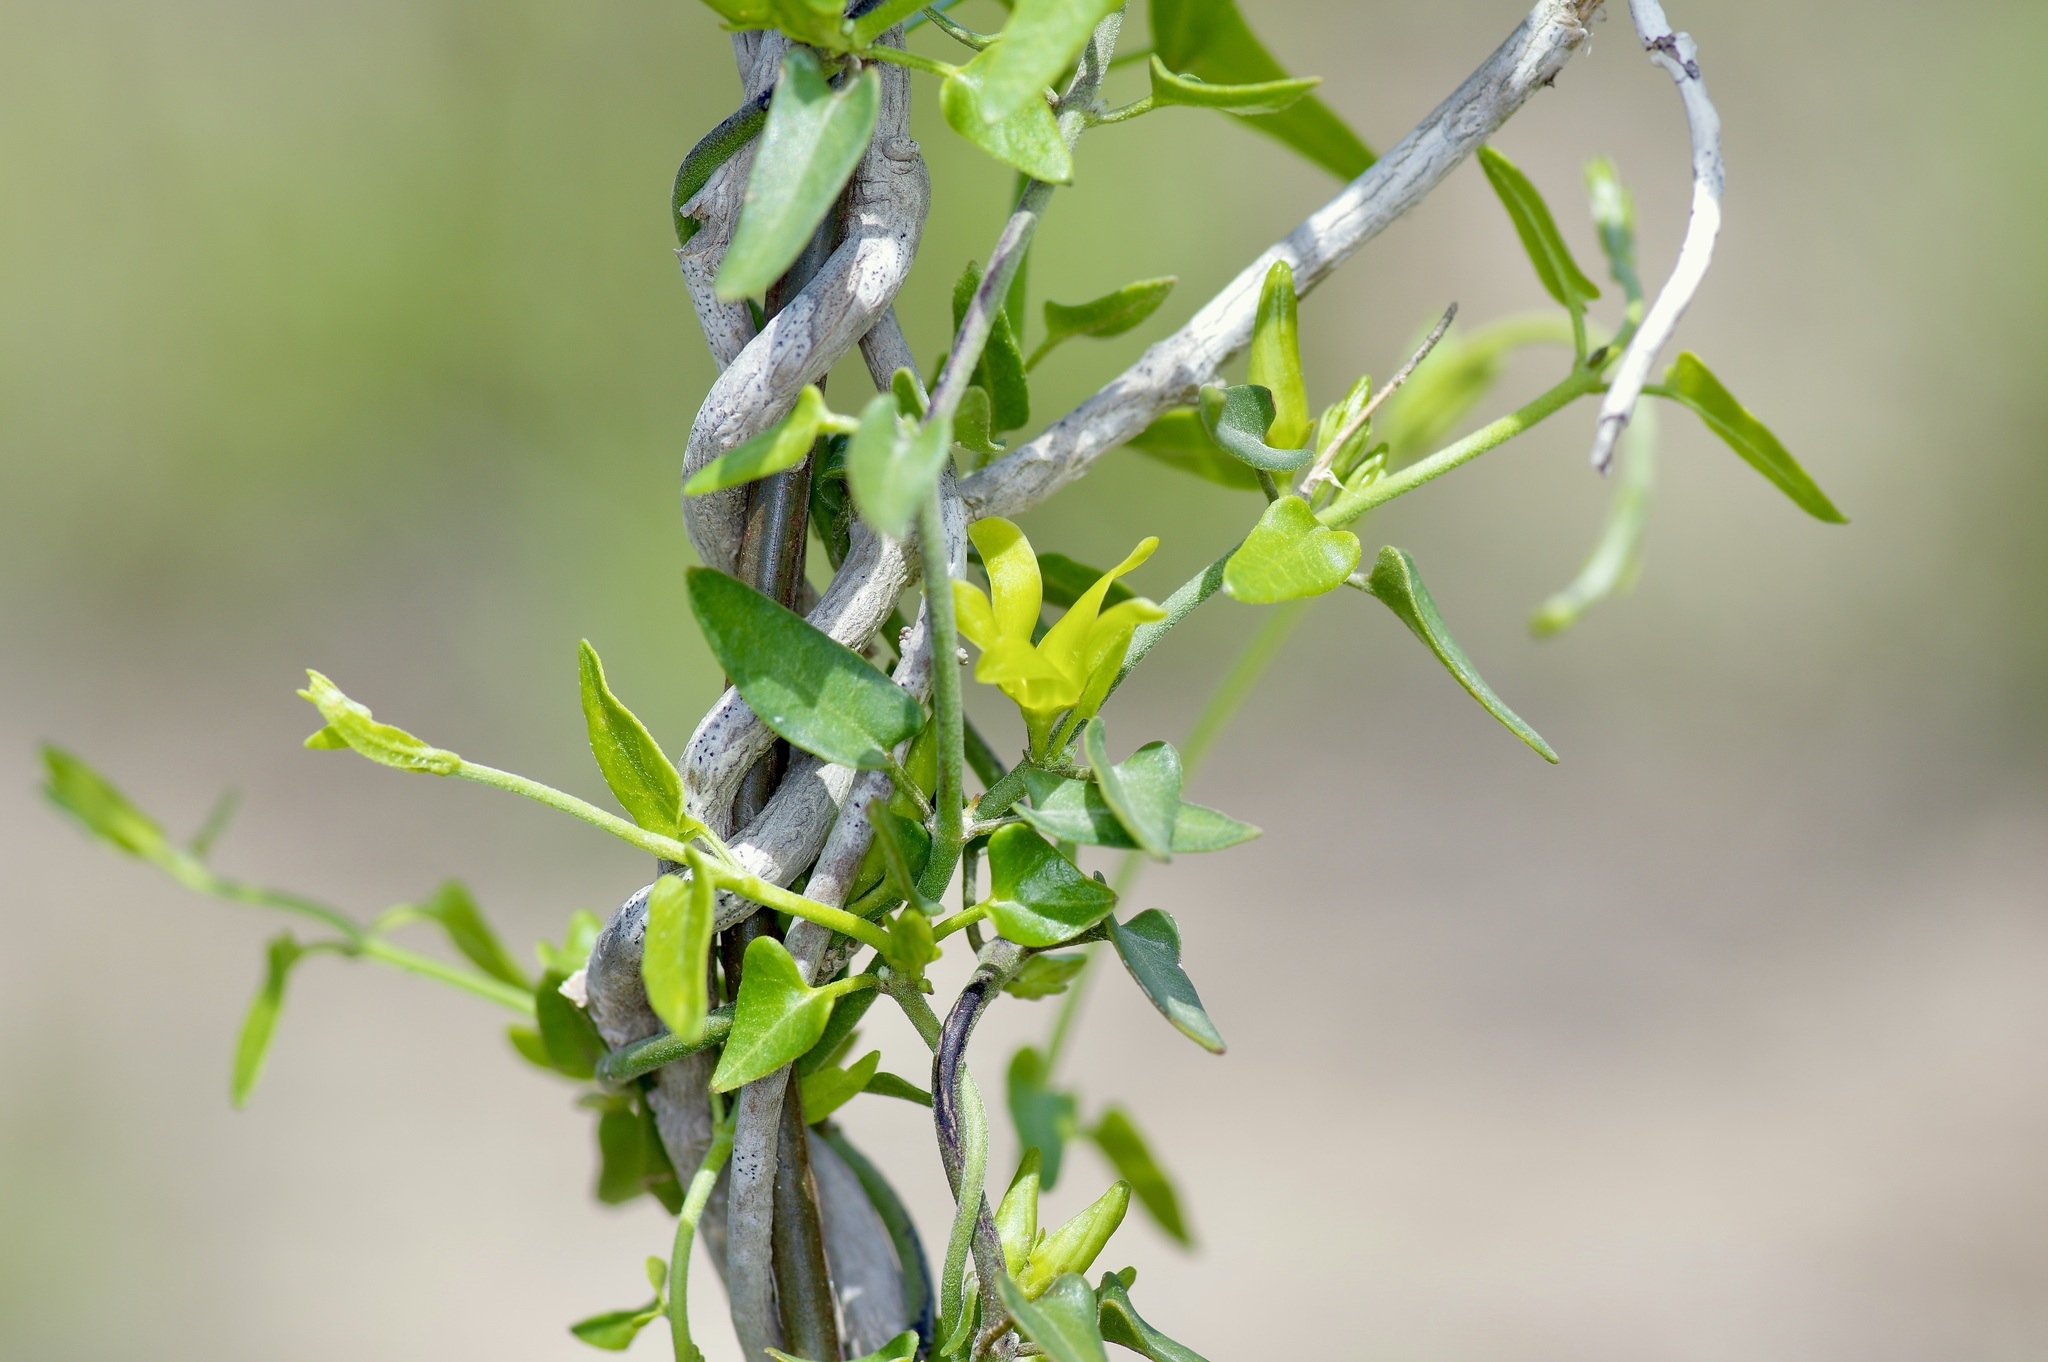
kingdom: Plantae
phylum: Tracheophyta
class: Magnoliopsida
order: Gentianales
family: Apocynaceae
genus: Matelea
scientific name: Matelea sagittifolia
